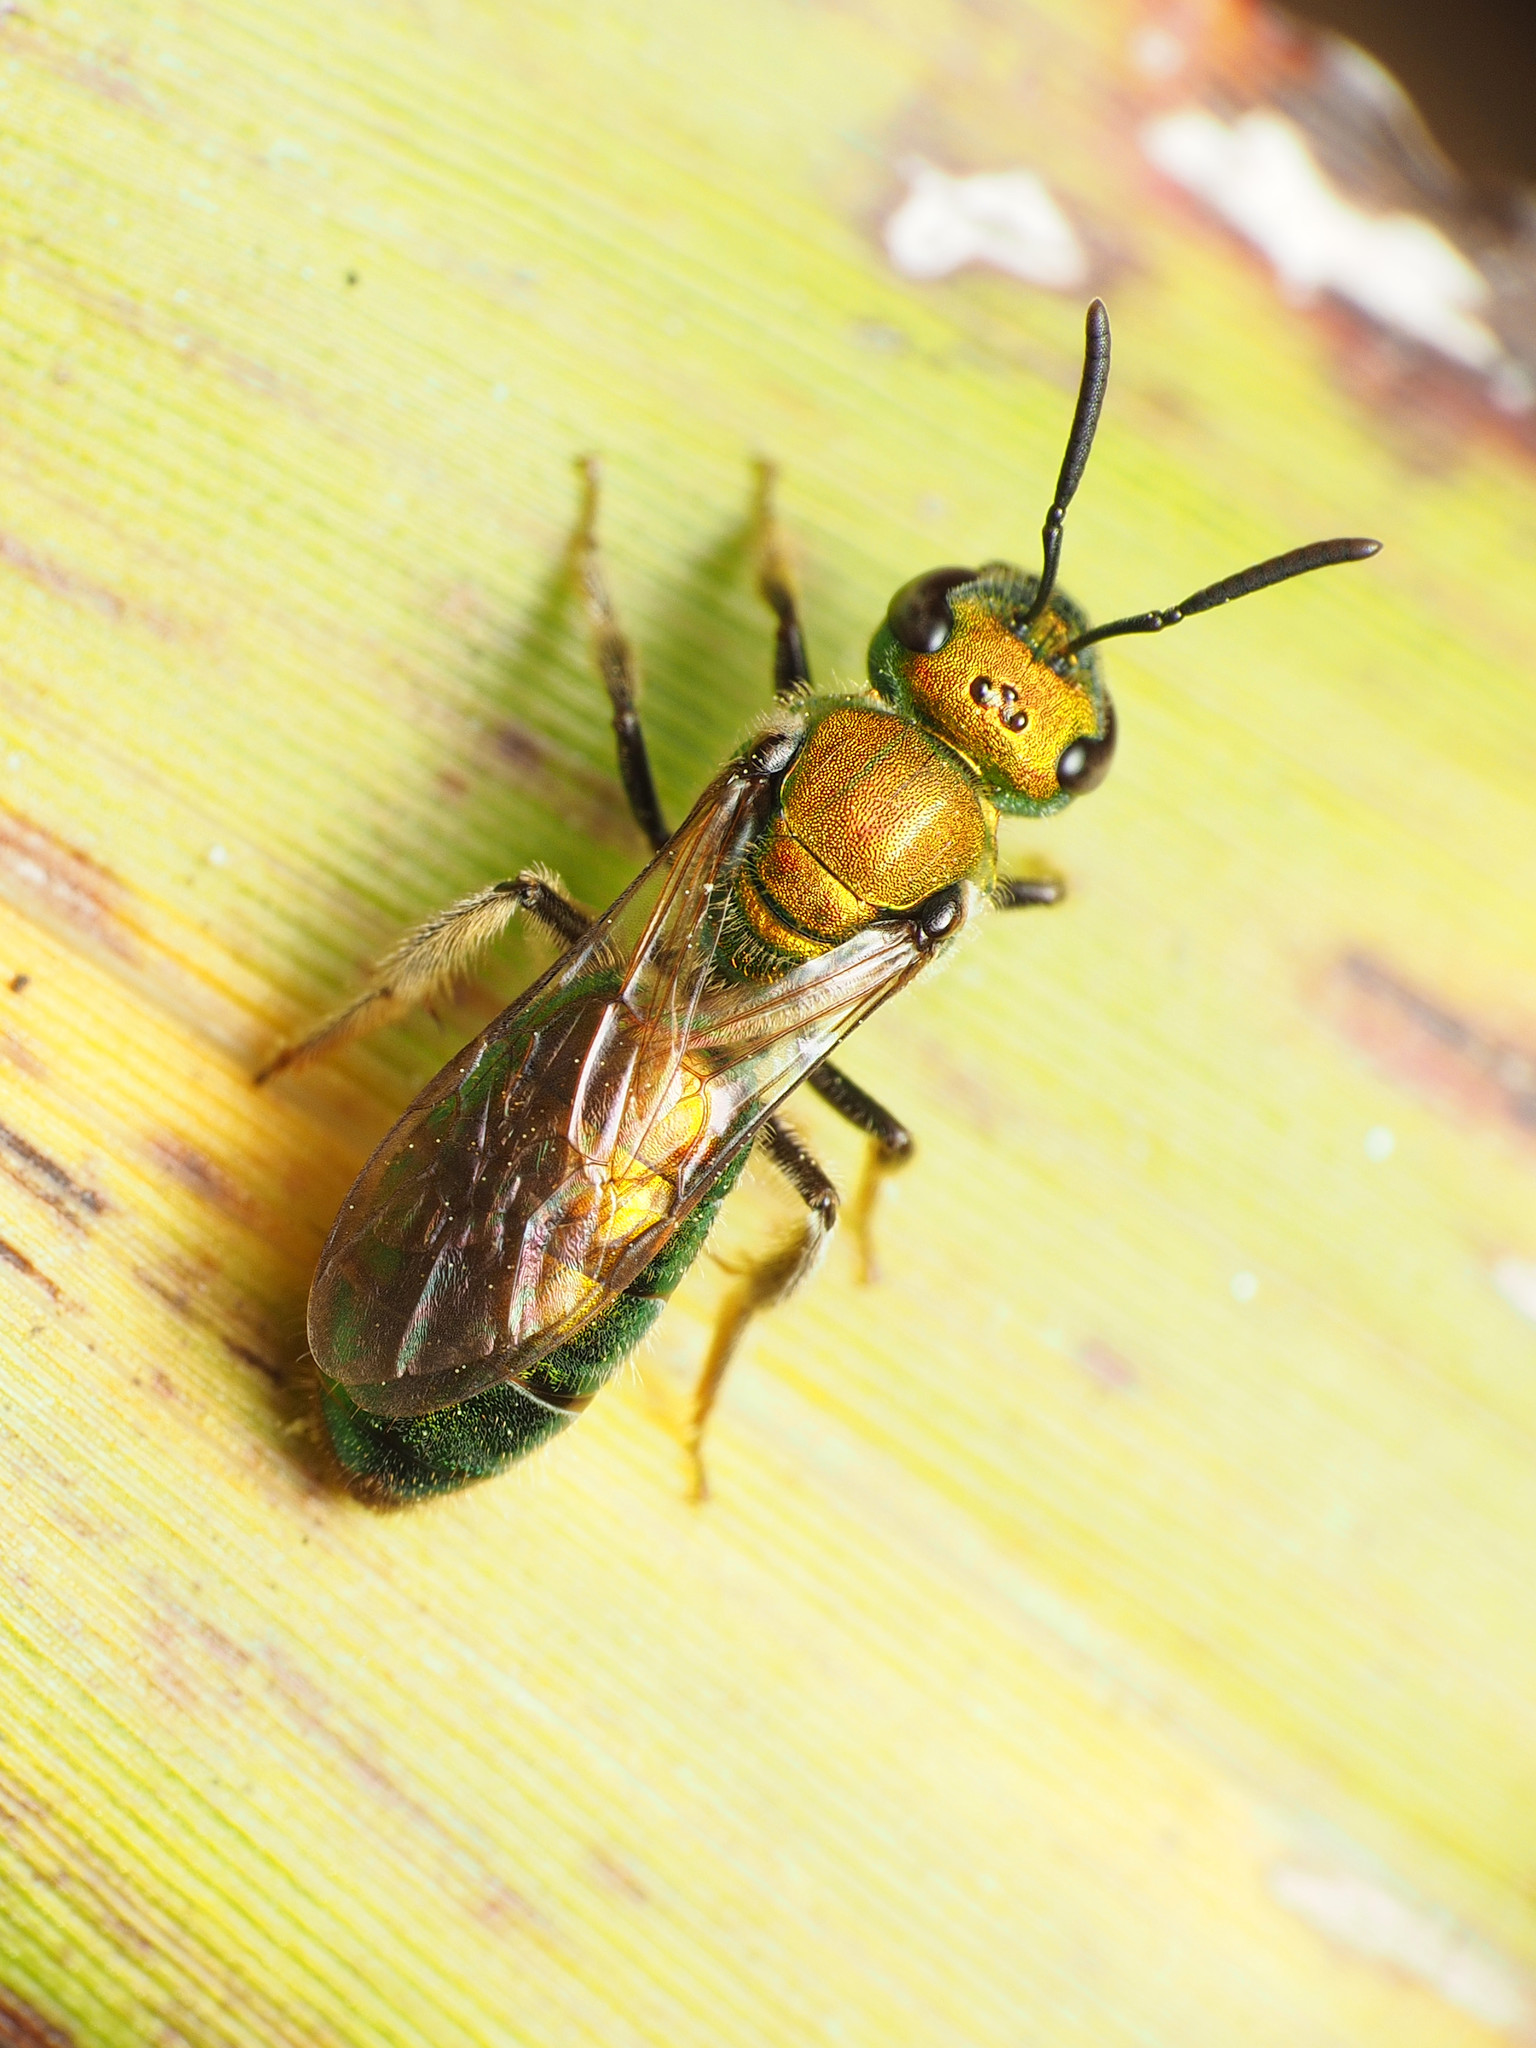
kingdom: Animalia
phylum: Arthropoda
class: Insecta
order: Hymenoptera
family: Halictidae
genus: Augochlora
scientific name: Augochlora pura
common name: Pure green sweat bee
